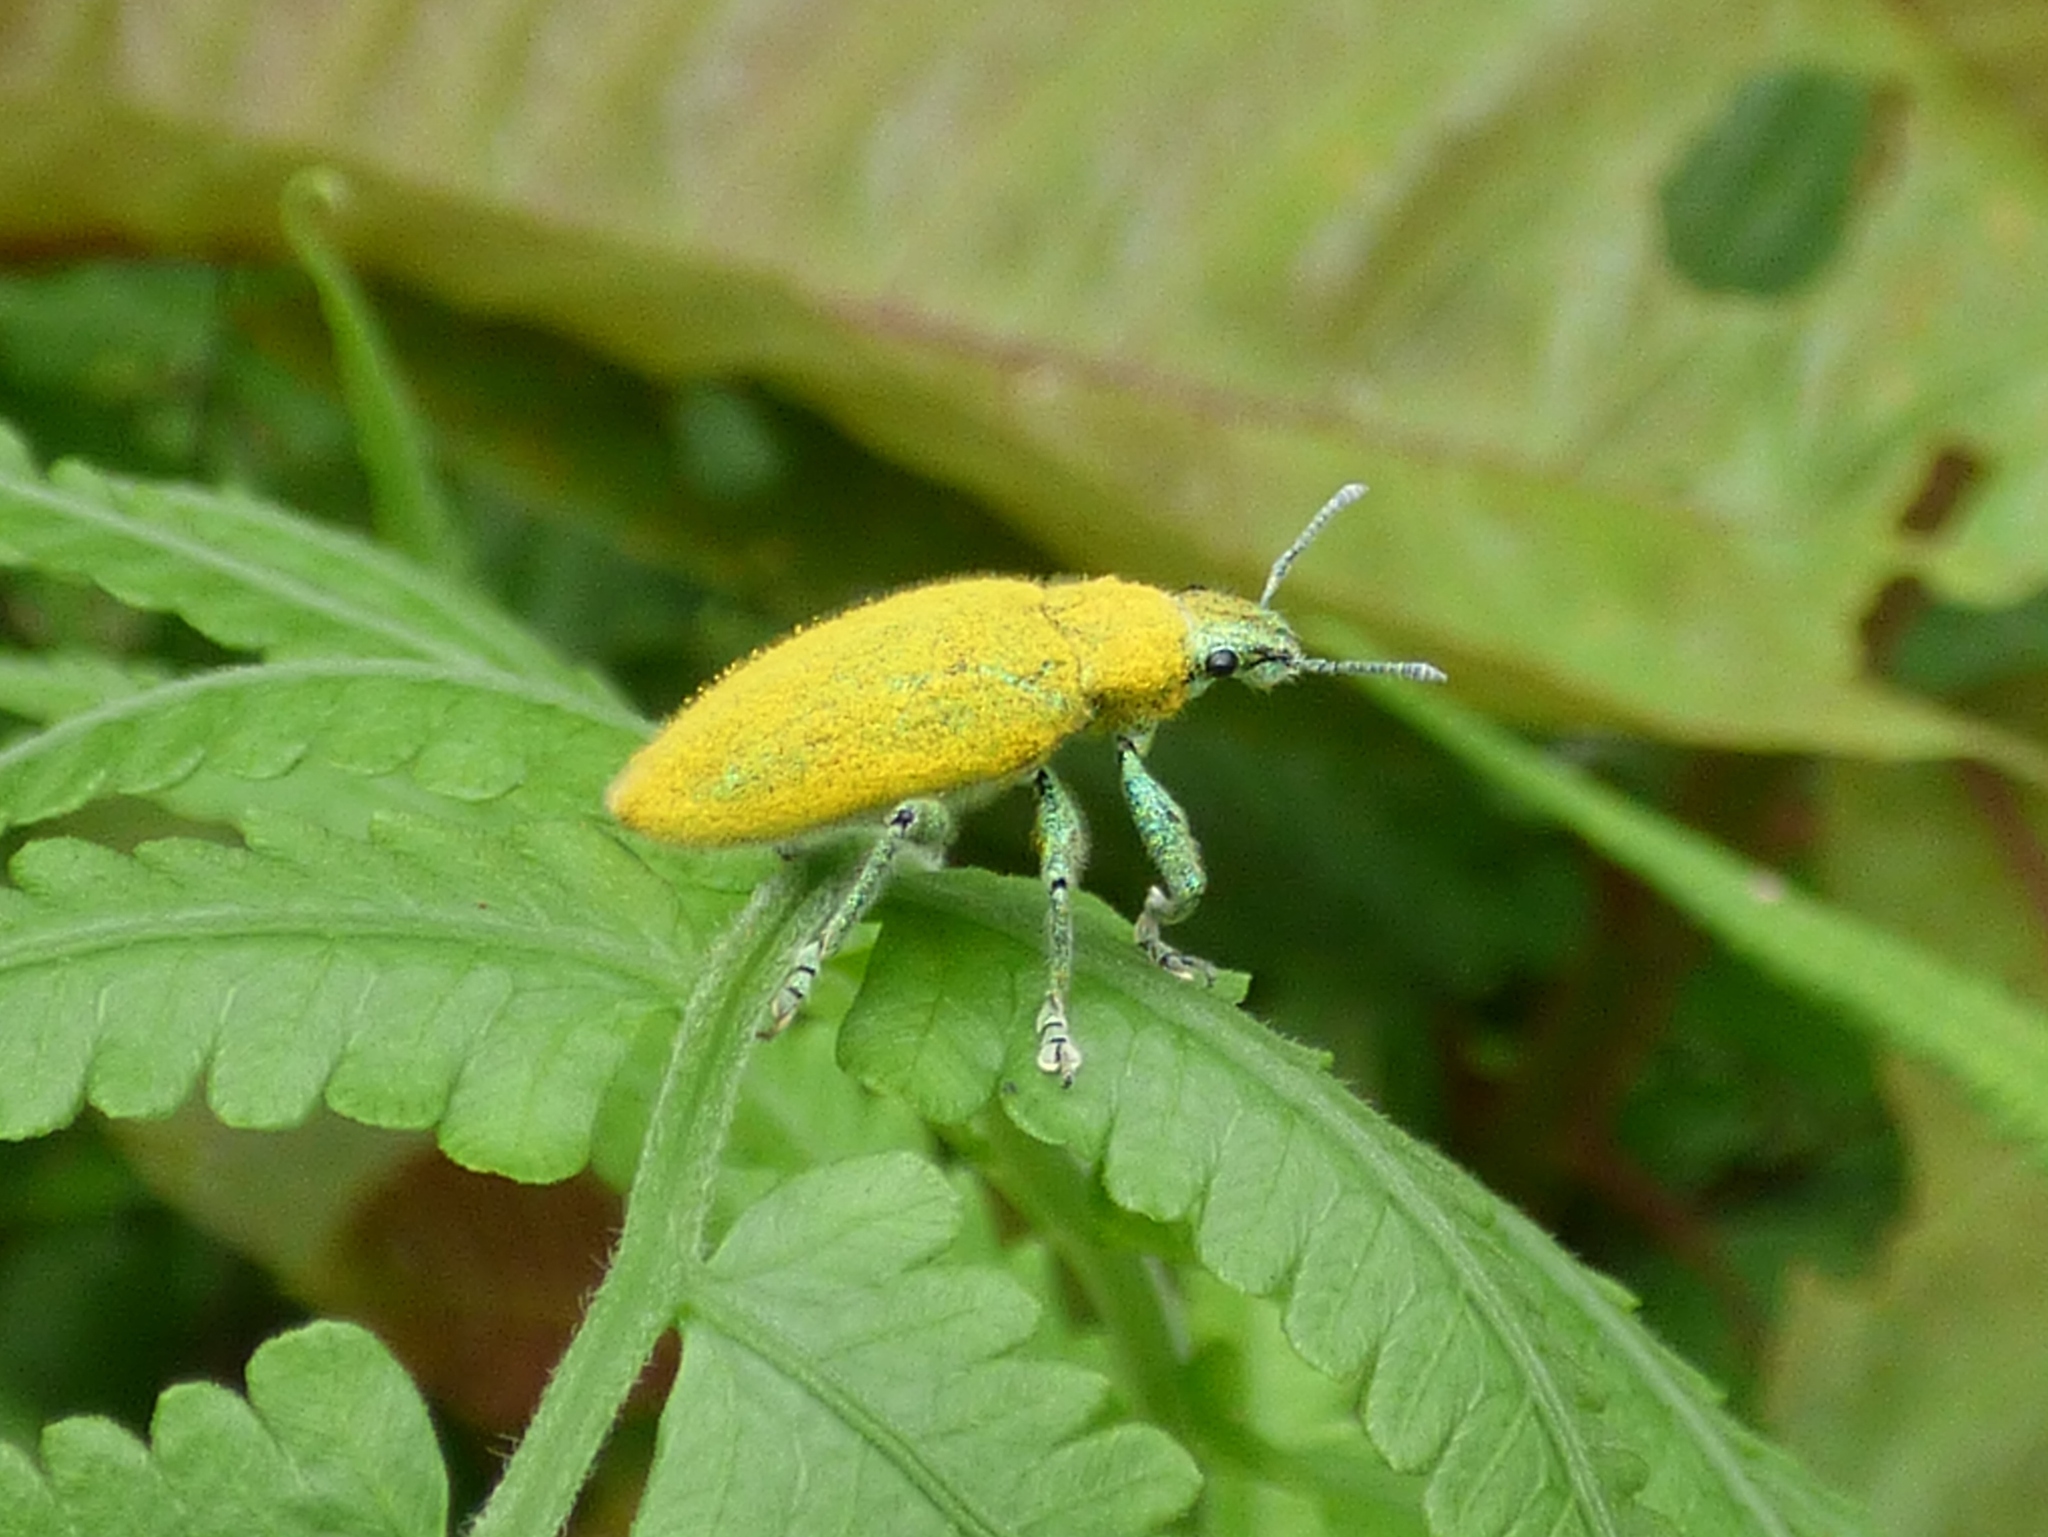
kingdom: Animalia
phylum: Arthropoda
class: Insecta
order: Coleoptera
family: Curculionidae
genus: Hypomeces
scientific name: Hypomeces pulviger
